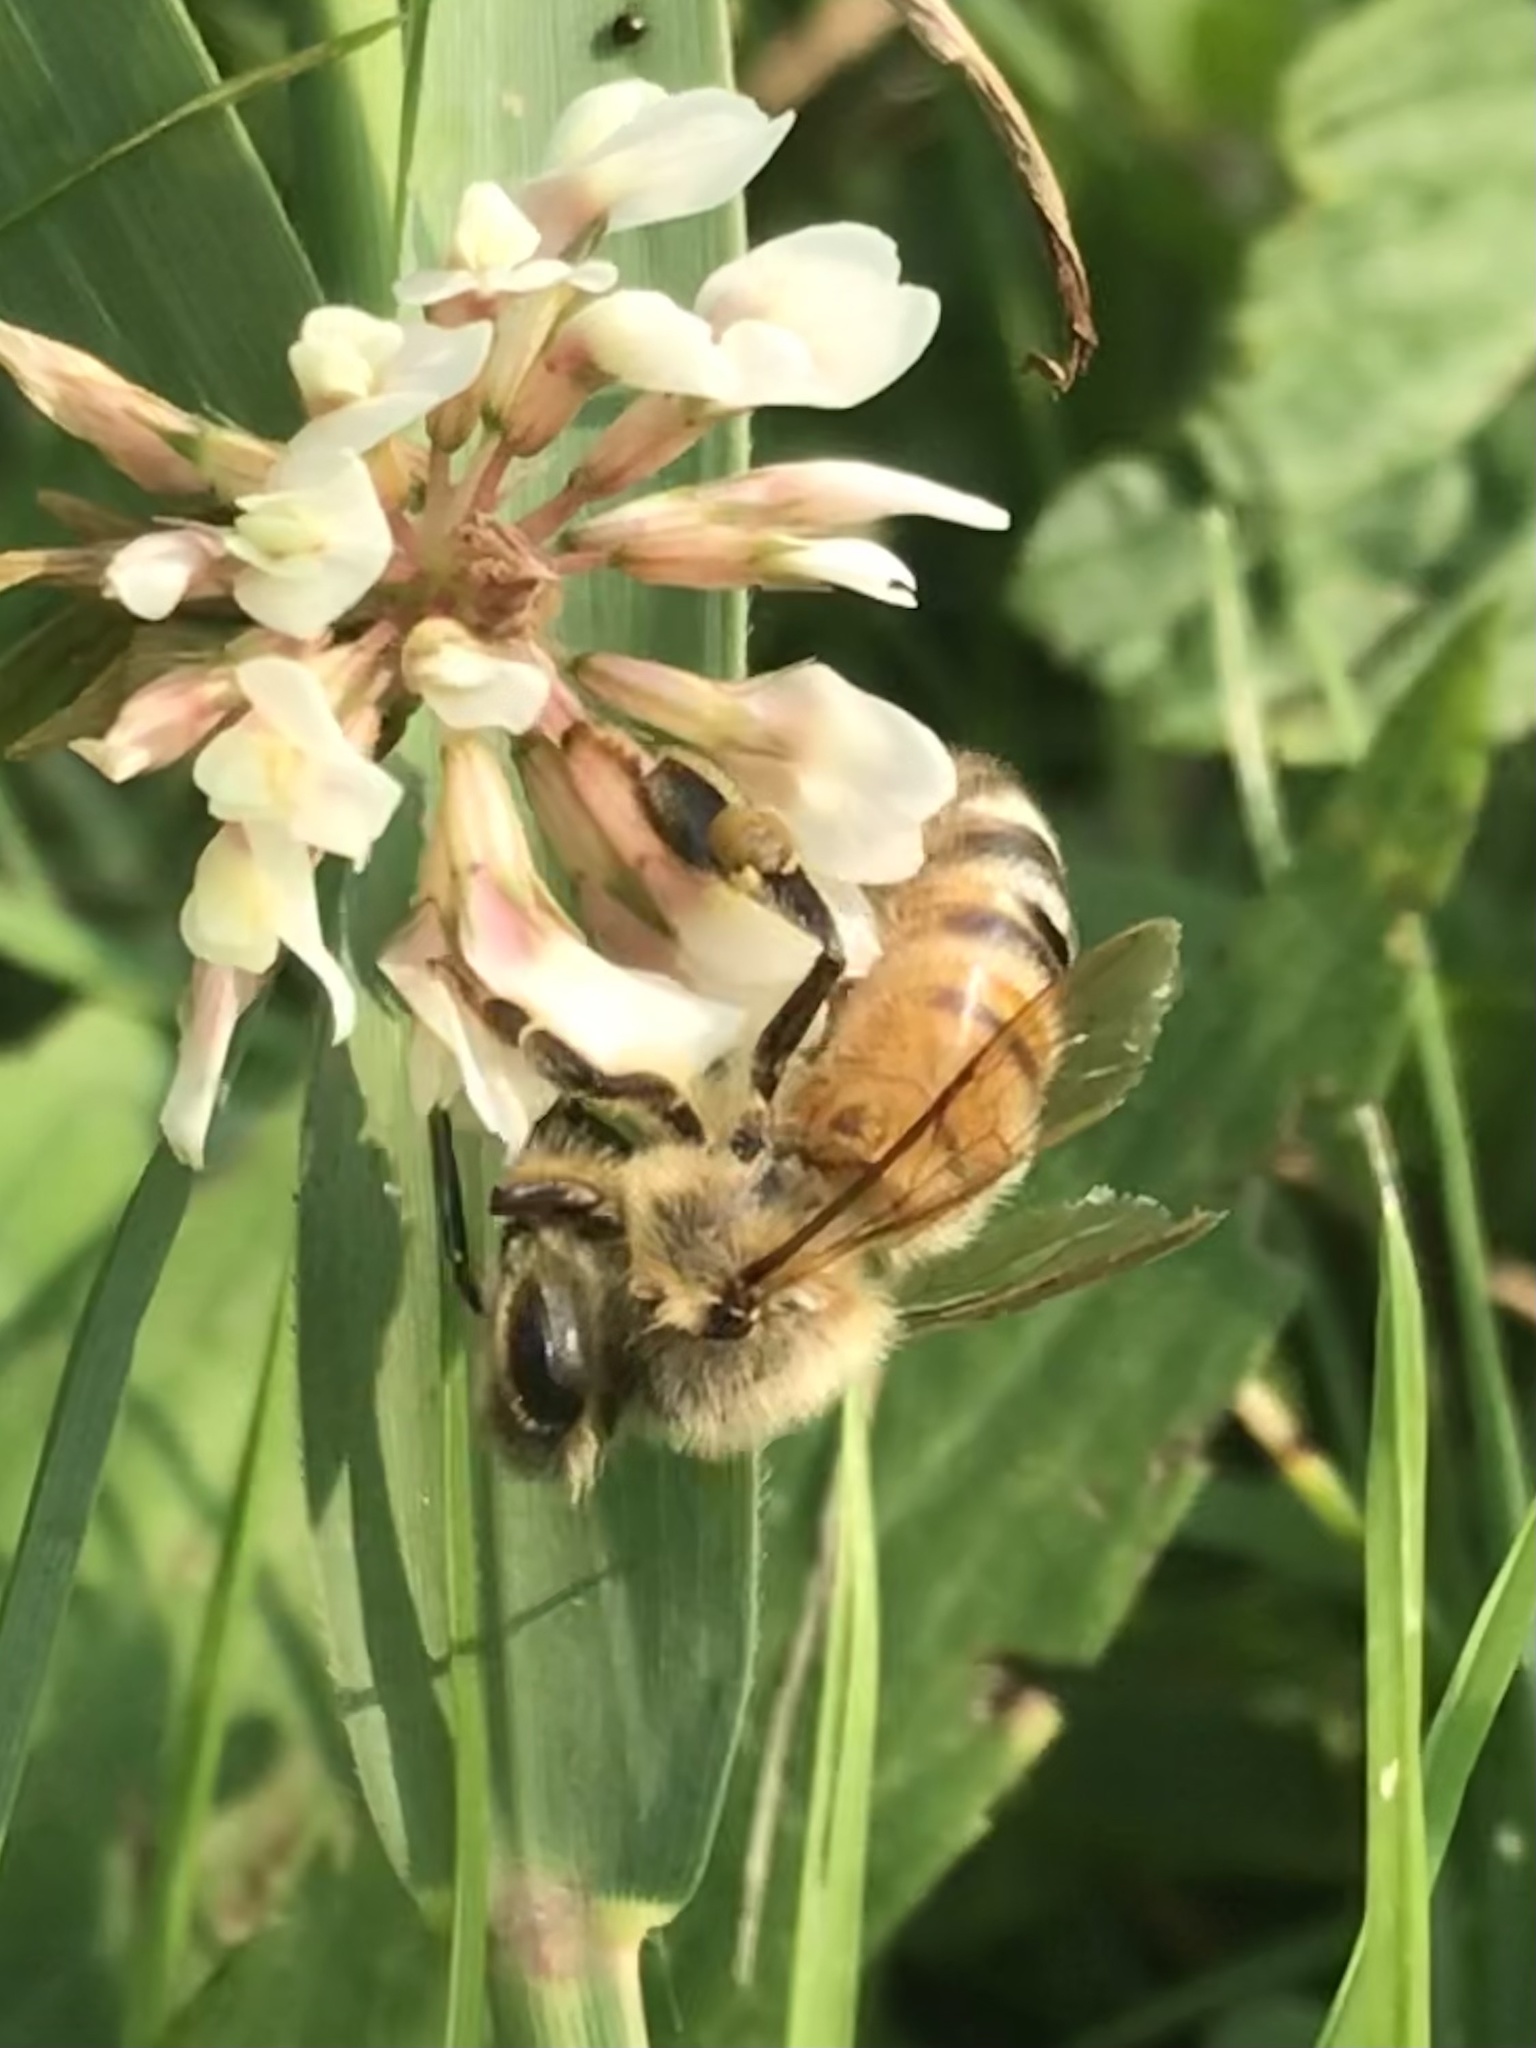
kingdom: Animalia
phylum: Arthropoda
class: Insecta
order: Hymenoptera
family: Apidae
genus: Apis
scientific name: Apis mellifera
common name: Honey bee
